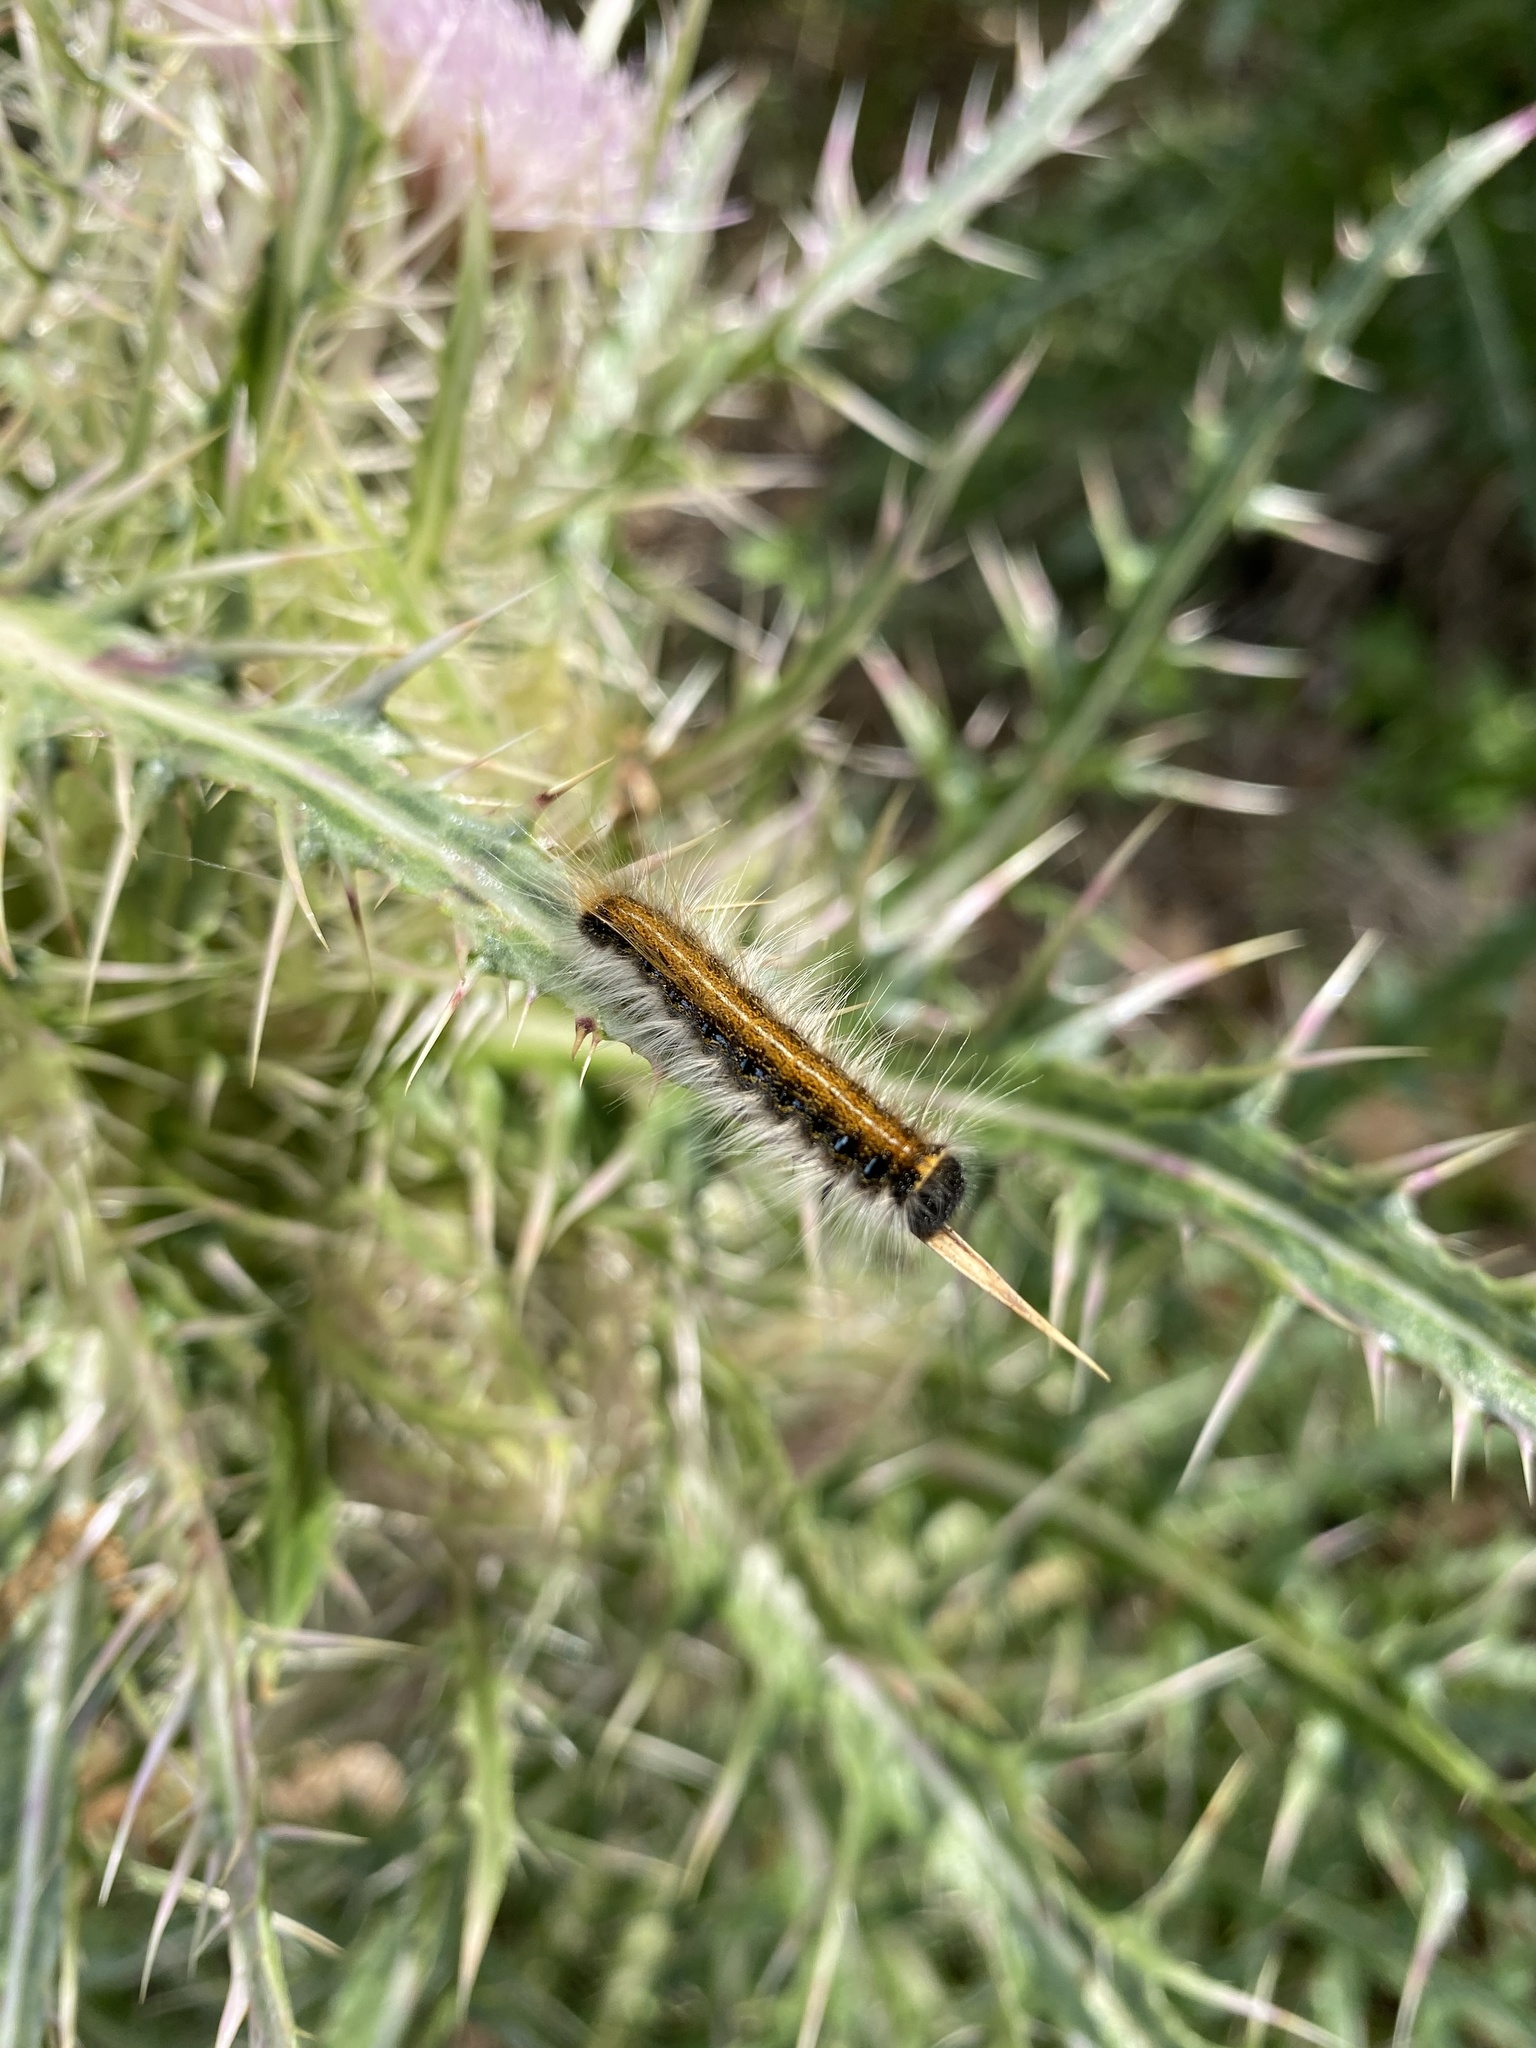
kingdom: Animalia
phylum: Arthropoda
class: Insecta
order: Lepidoptera
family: Lasiocampidae
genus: Malacosoma
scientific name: Malacosoma americana
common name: Eastern tent caterpillar moth
